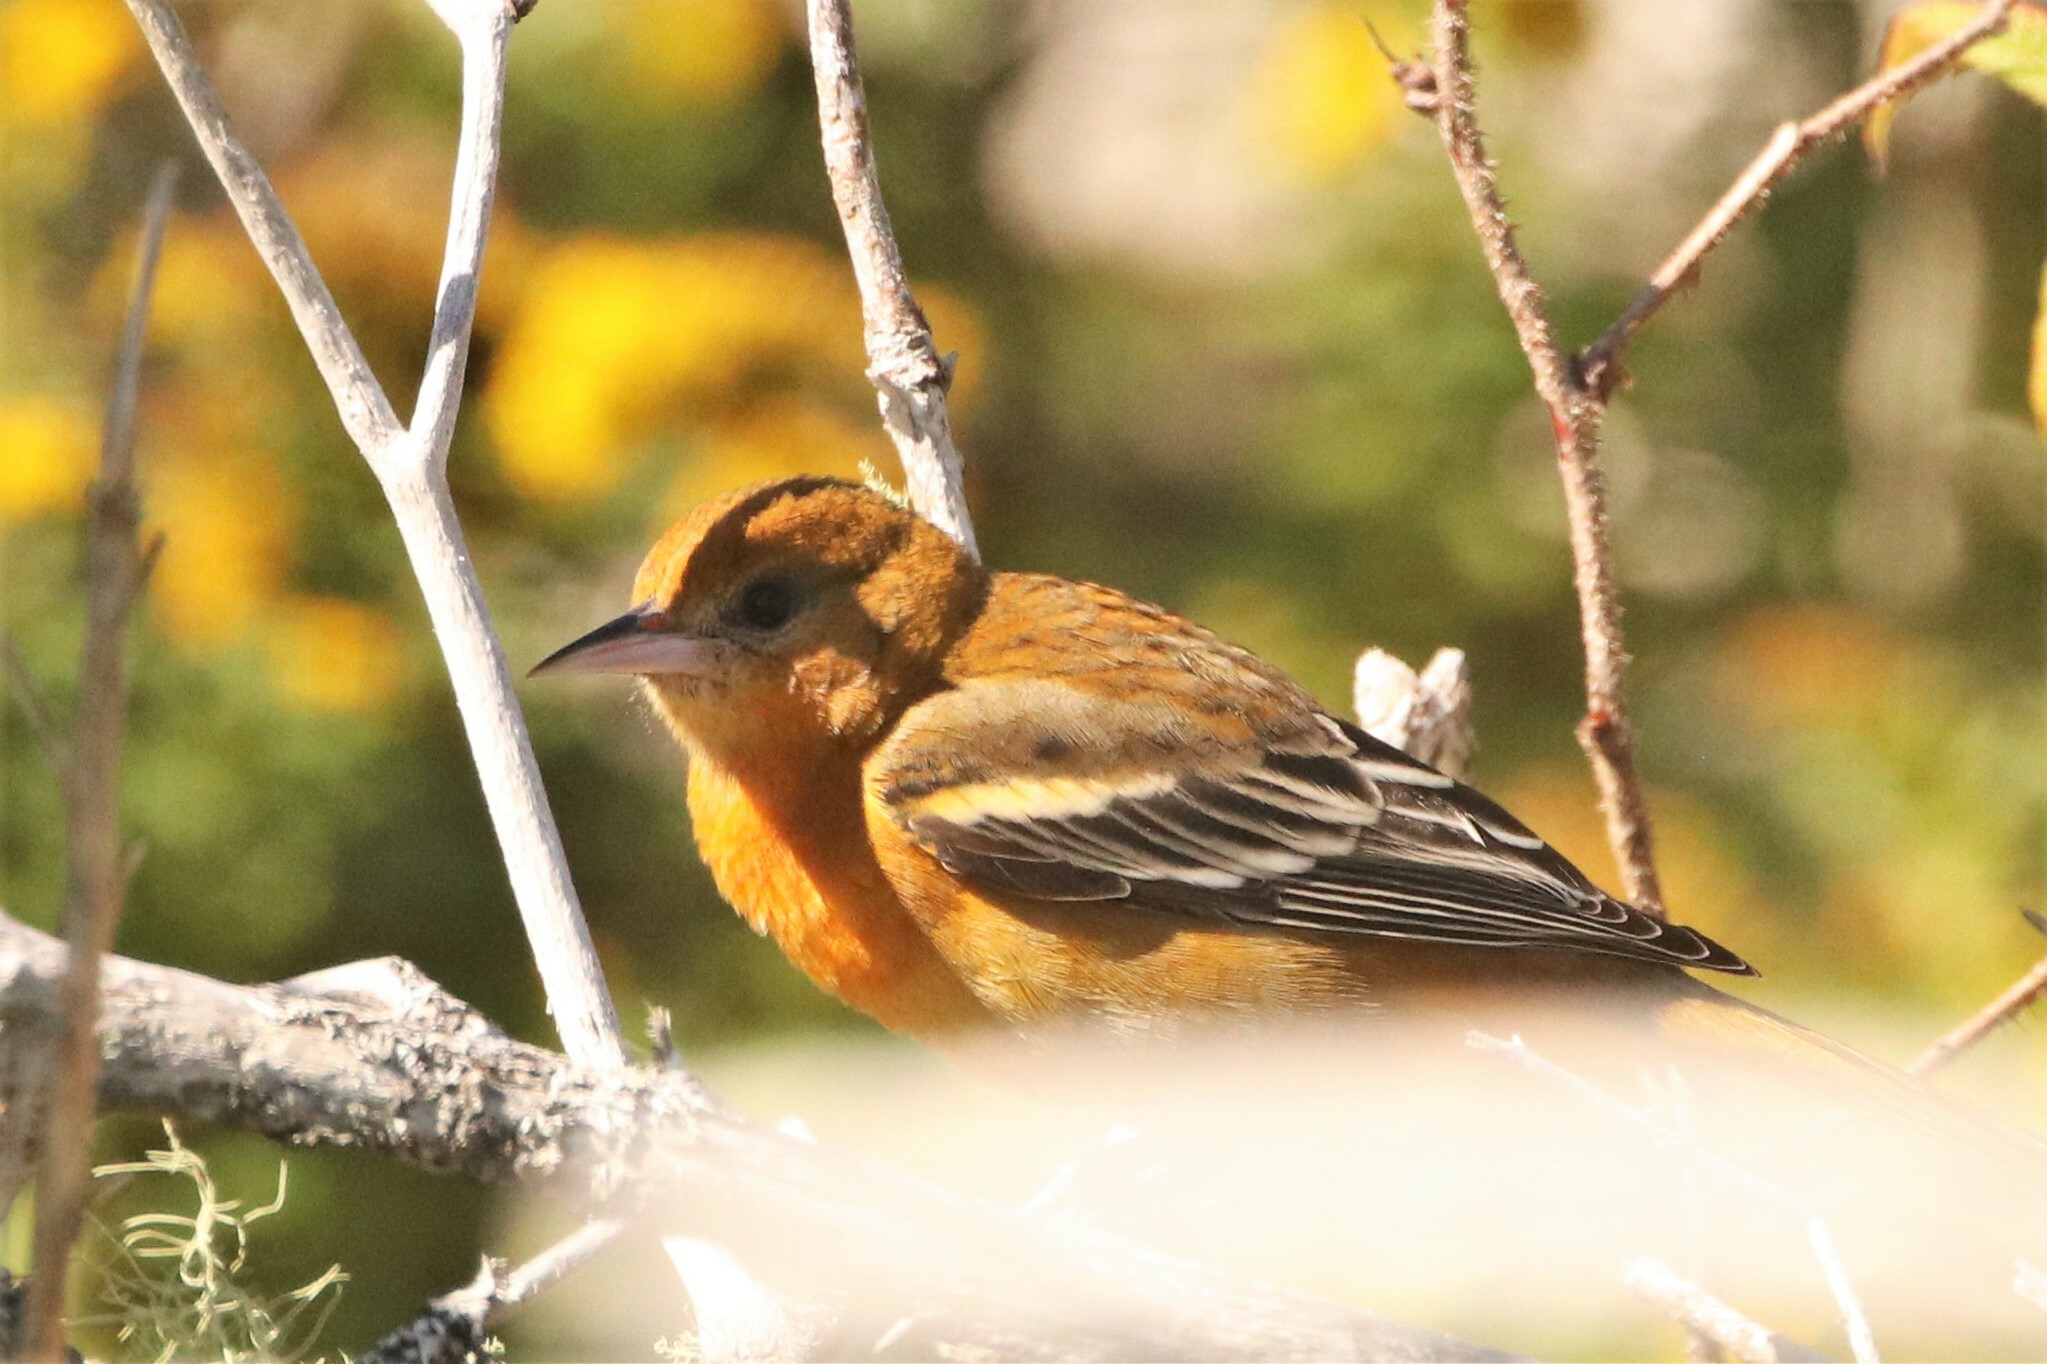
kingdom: Animalia
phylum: Chordata
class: Aves
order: Passeriformes
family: Icteridae
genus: Icterus
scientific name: Icterus galbula
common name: Baltimore oriole
